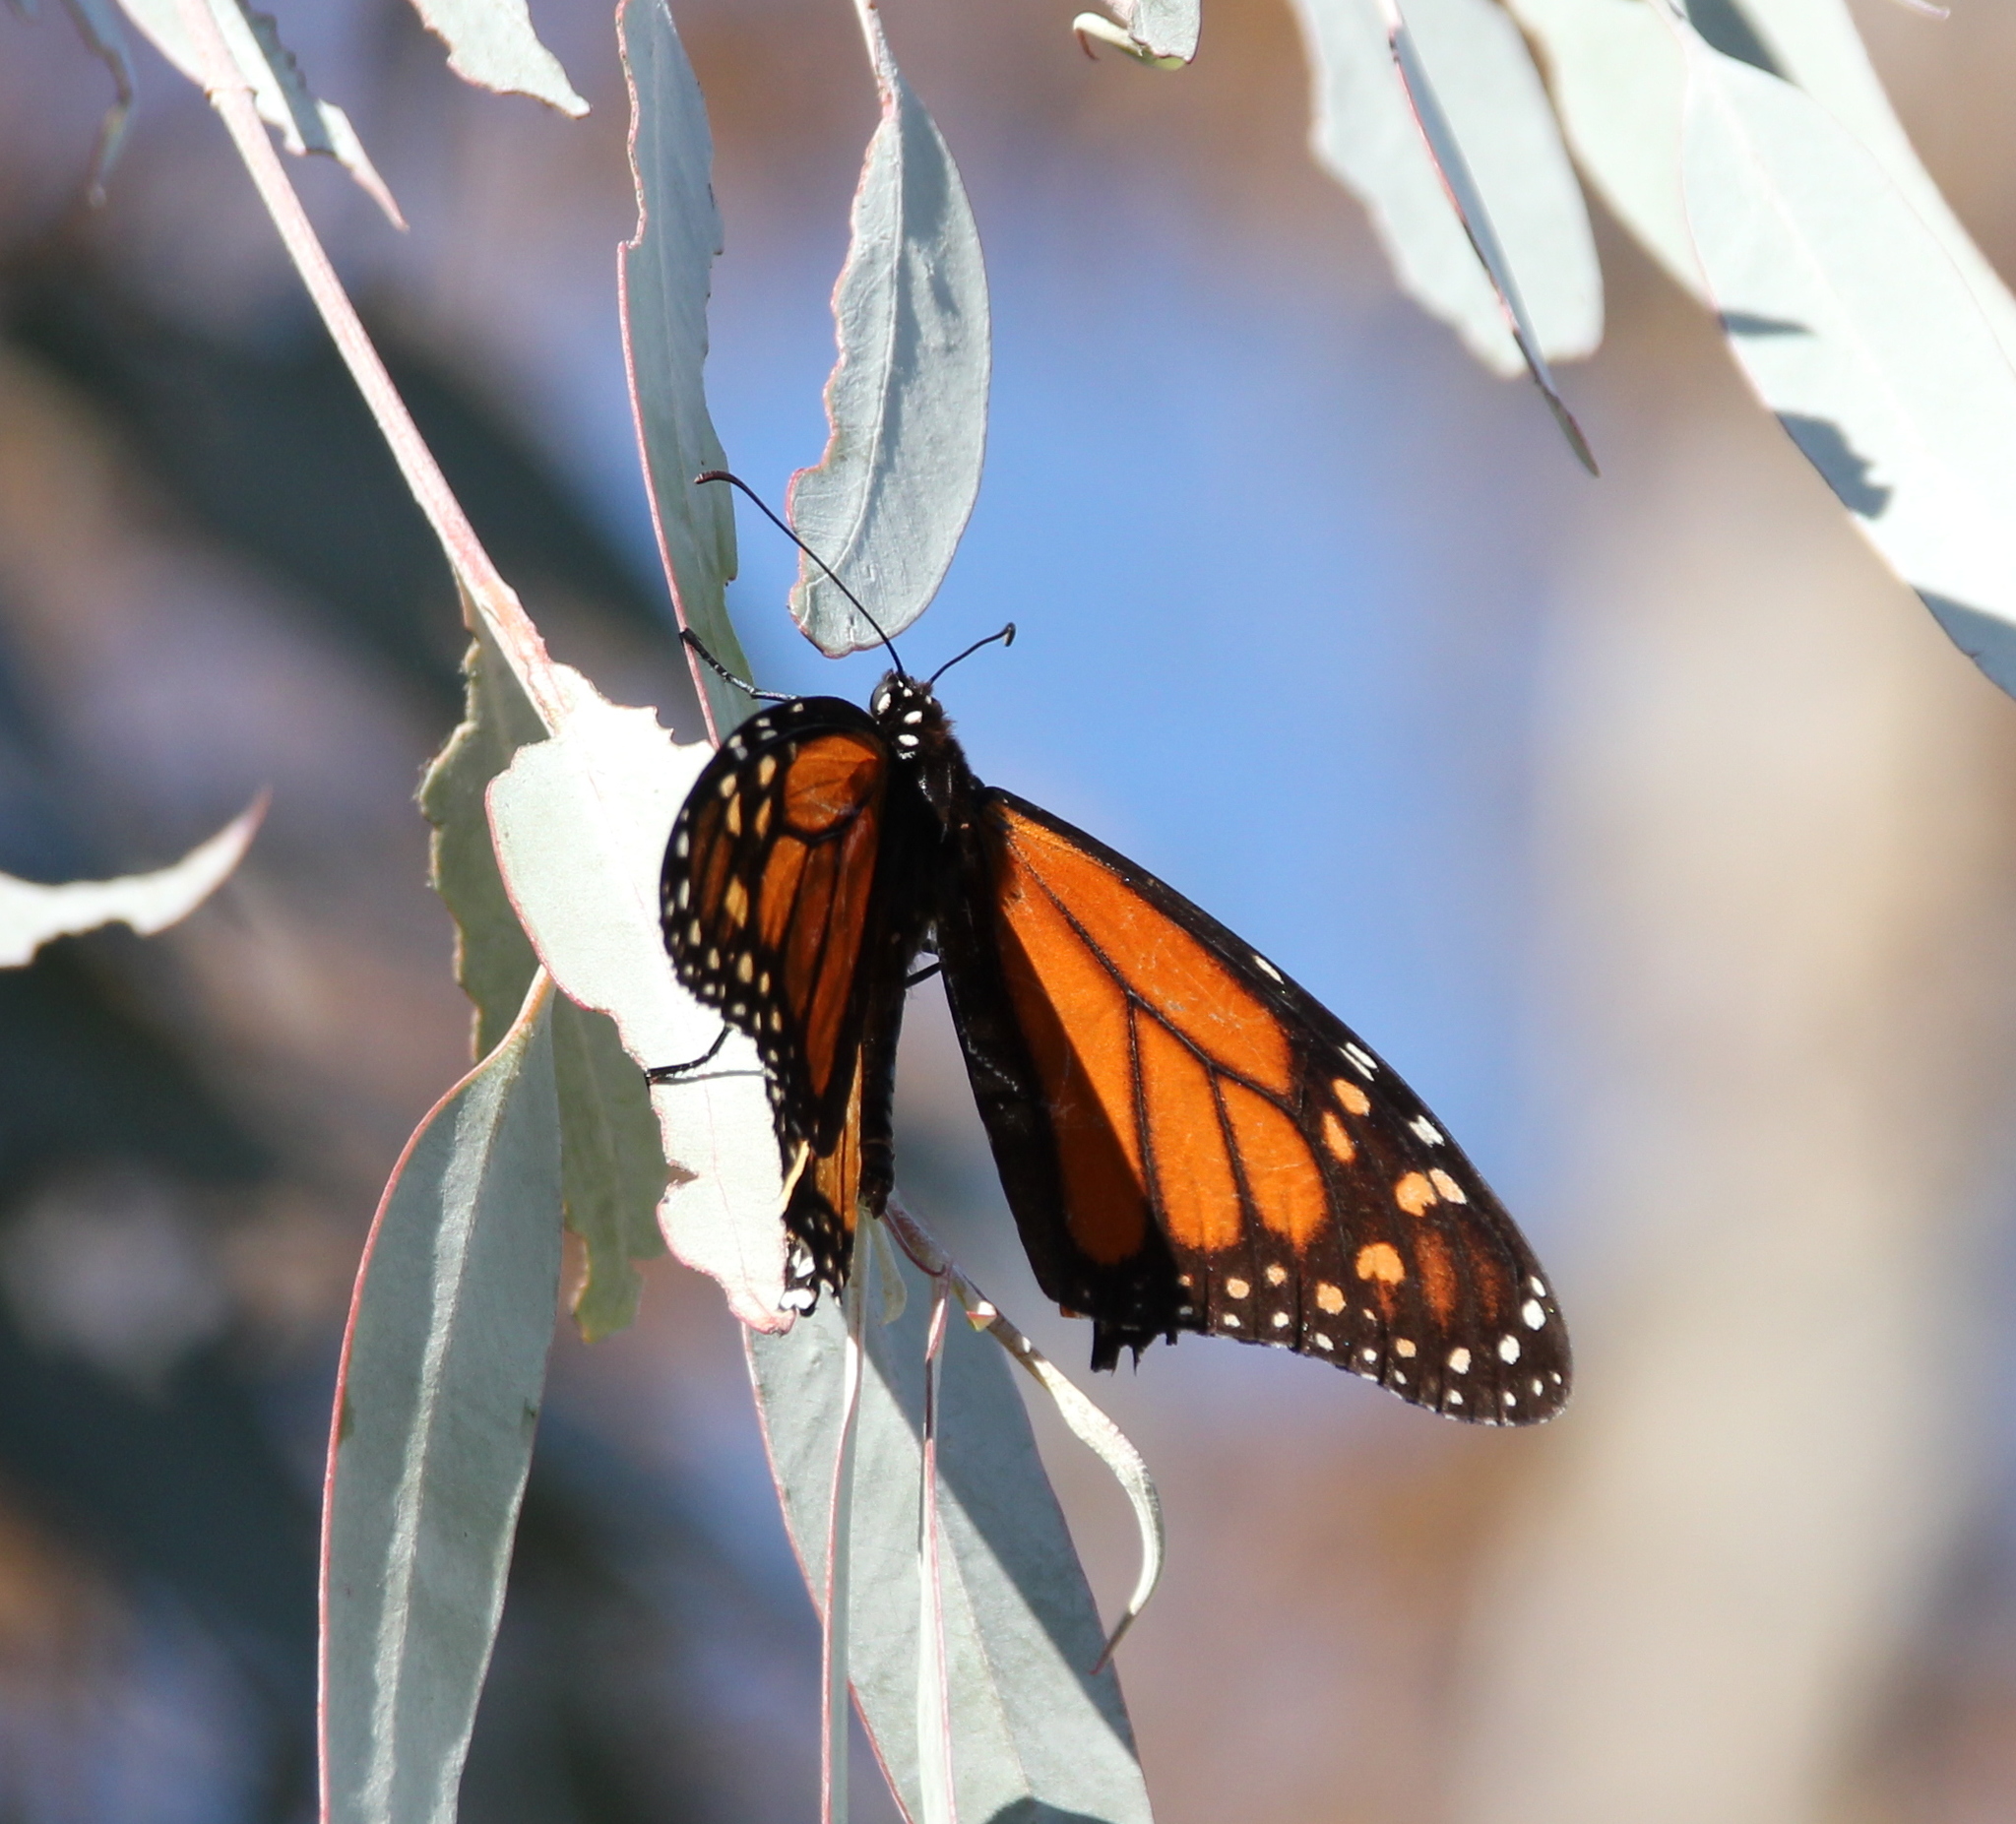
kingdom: Animalia
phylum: Arthropoda
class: Insecta
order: Lepidoptera
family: Nymphalidae
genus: Danaus
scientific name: Danaus plexippus
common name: Monarch
